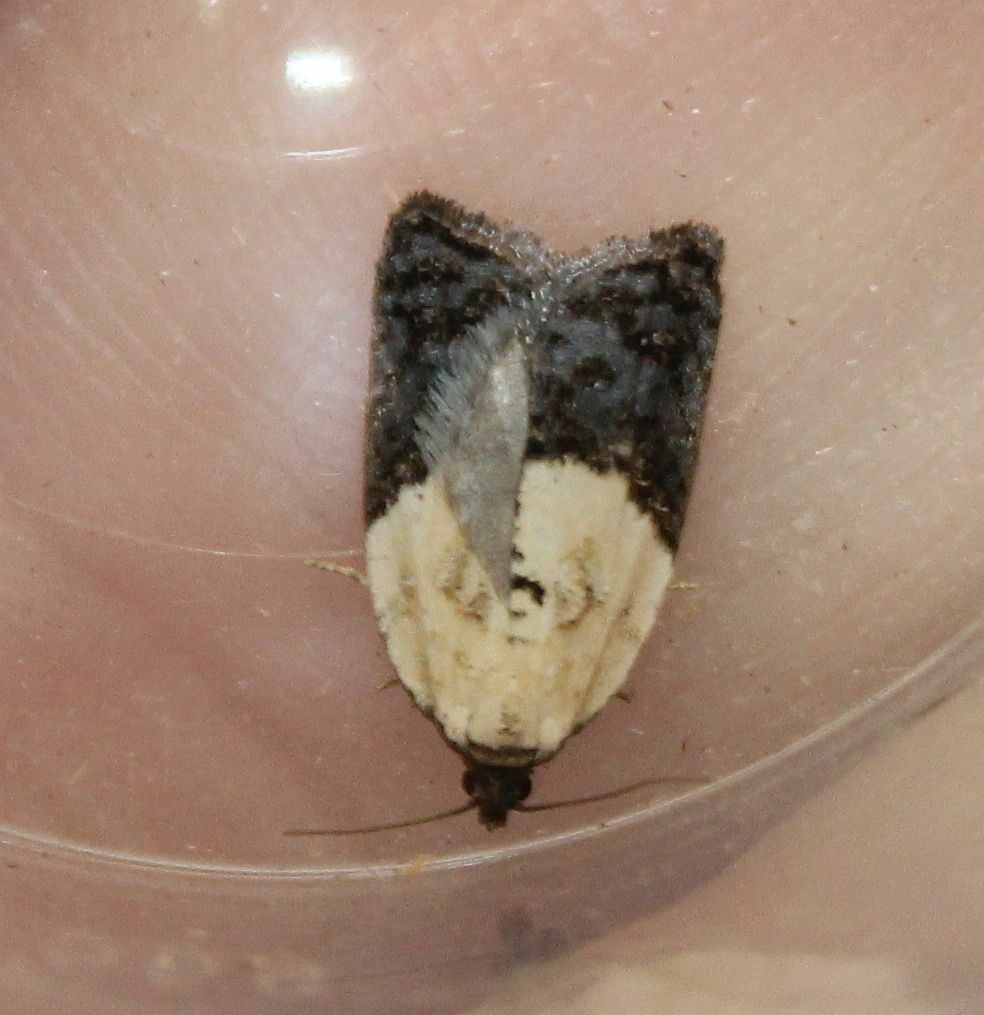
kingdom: Animalia
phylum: Arthropoda
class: Insecta
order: Lepidoptera
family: Tortricidae
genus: Acleris
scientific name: Acleris variegana
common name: Garden rose tortrix
